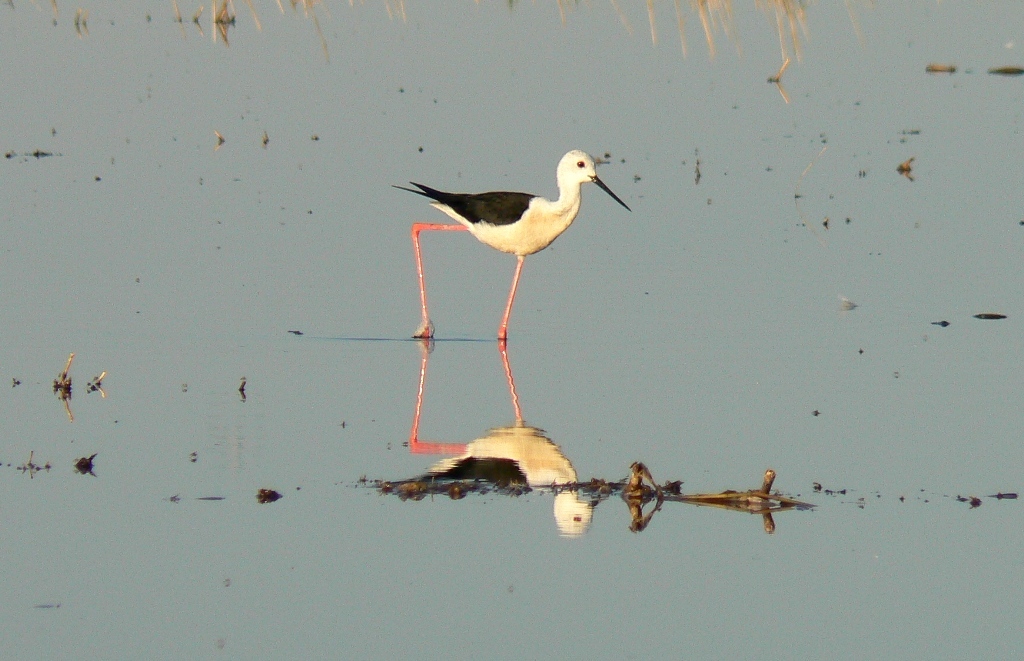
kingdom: Animalia
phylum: Chordata
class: Aves
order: Charadriiformes
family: Recurvirostridae
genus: Himantopus
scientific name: Himantopus himantopus
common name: Black-winged stilt
